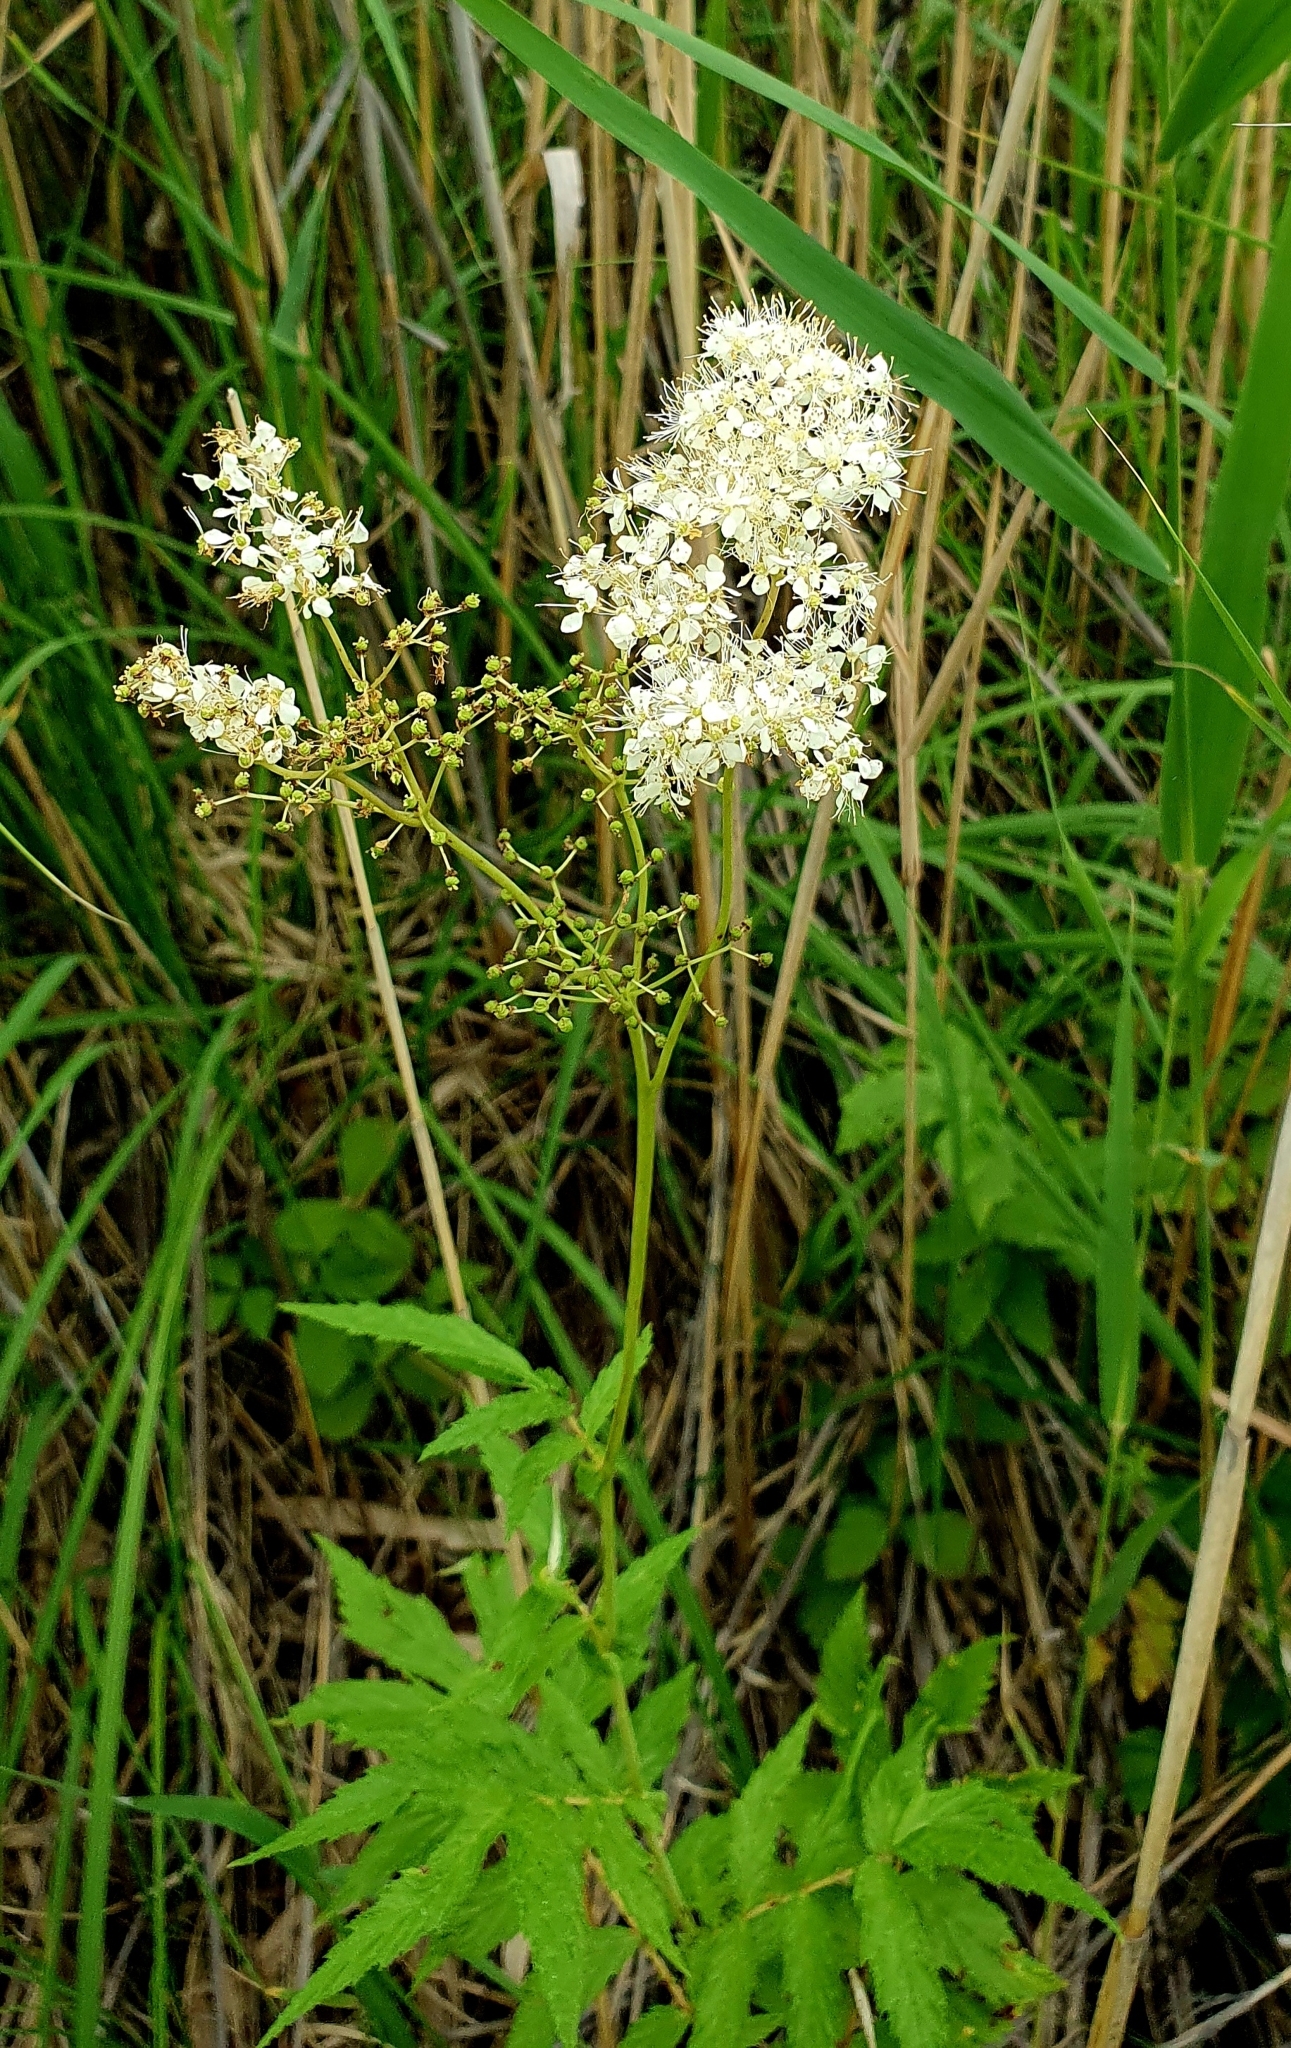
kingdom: Plantae
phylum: Tracheophyta
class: Magnoliopsida
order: Rosales
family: Rosaceae
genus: Filipendula
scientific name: Filipendula ulmaria
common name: Meadowsweet
